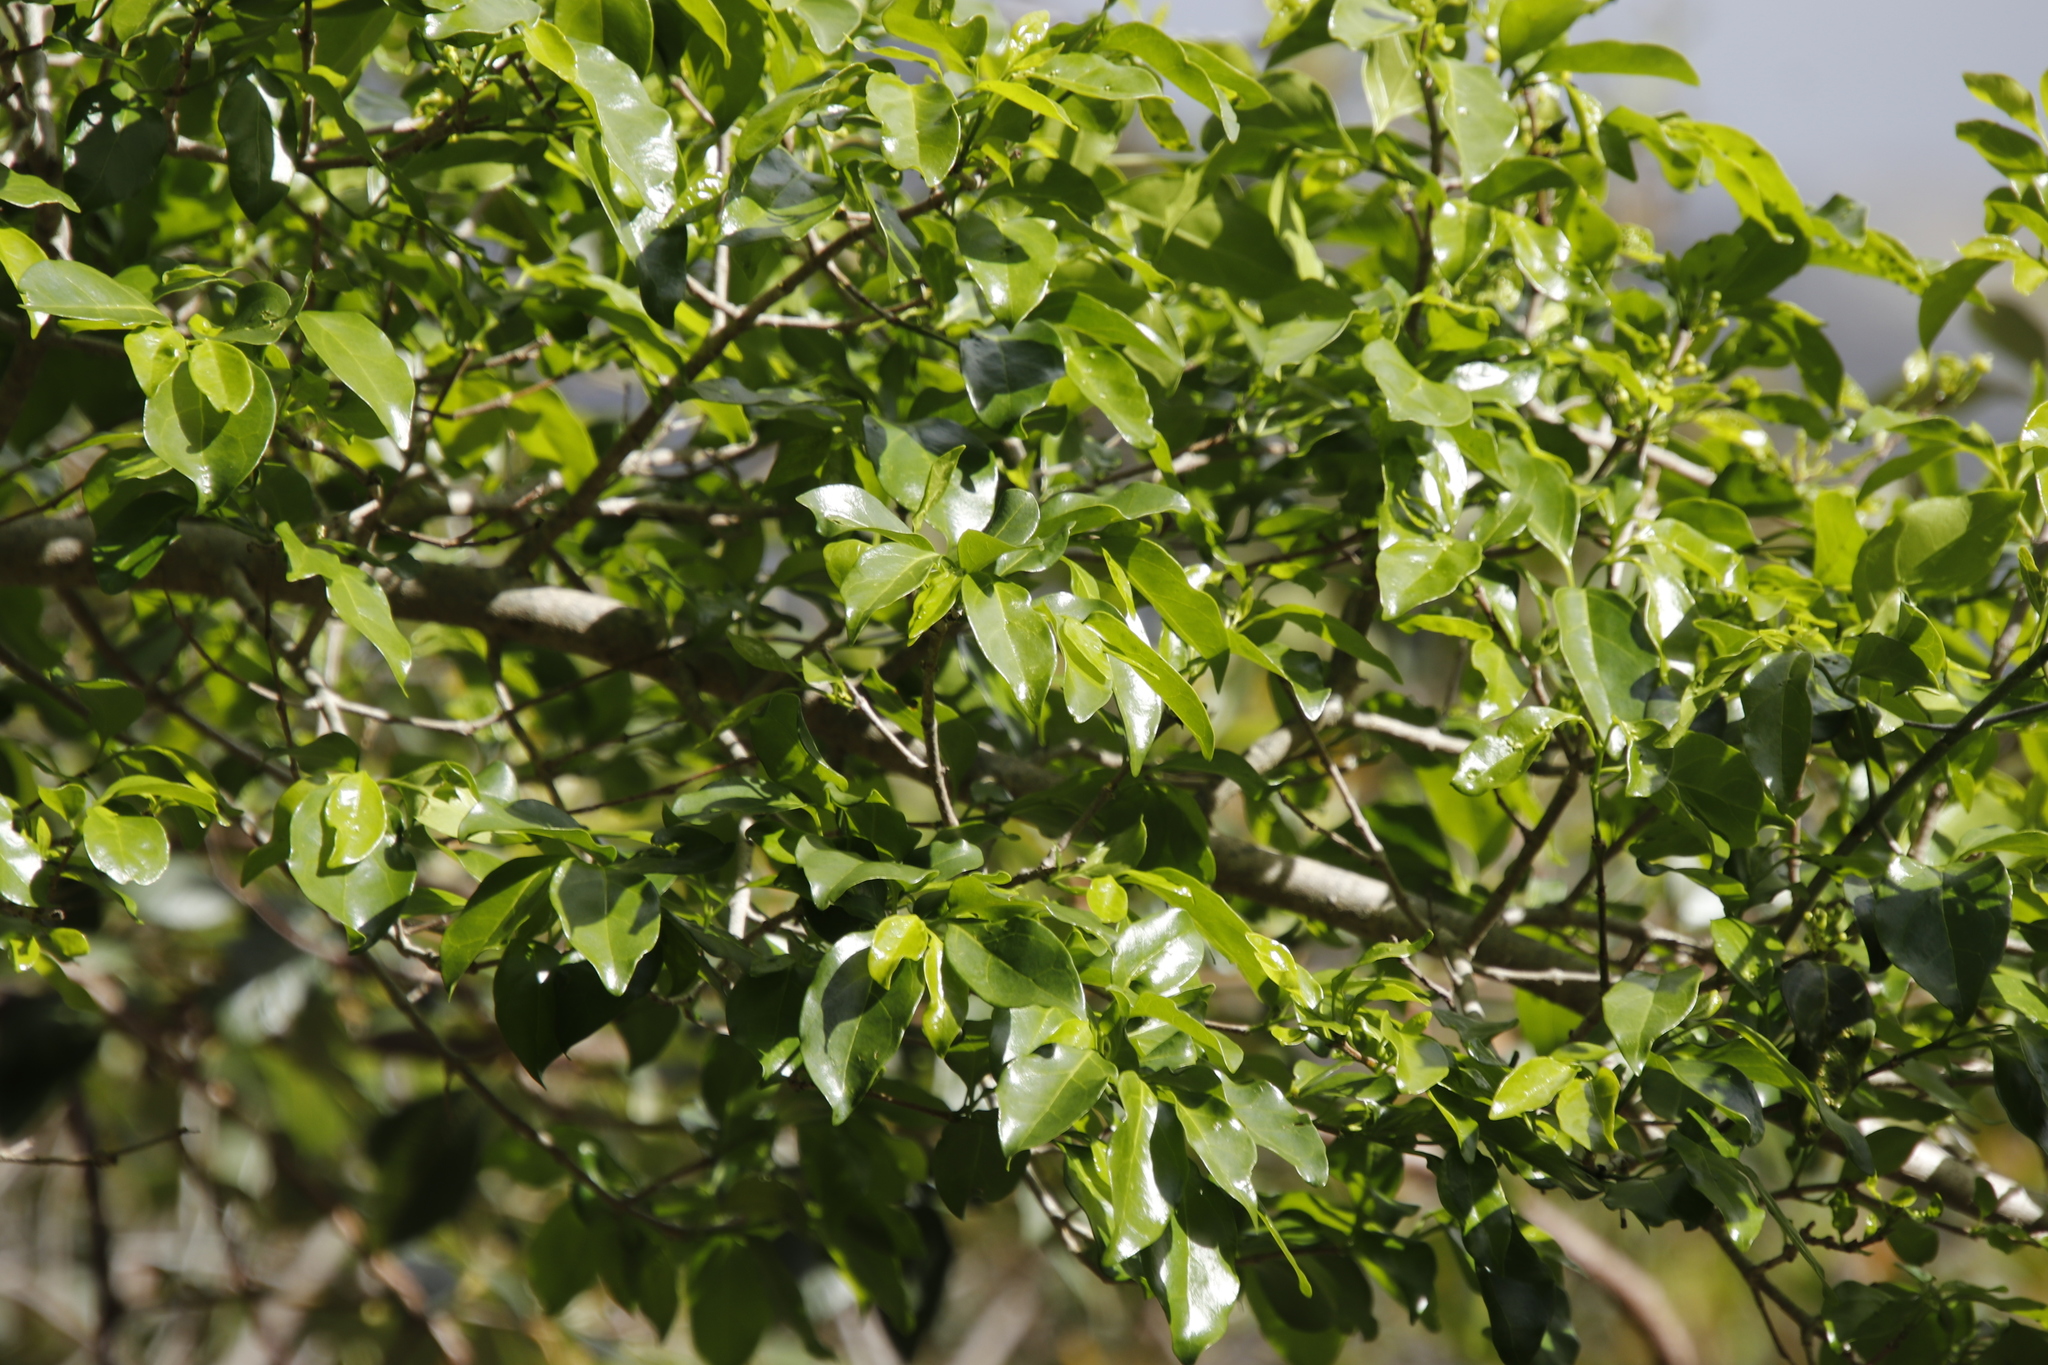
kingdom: Plantae
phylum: Tracheophyta
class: Magnoliopsida
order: Gentianales
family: Rubiaceae
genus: Canthium
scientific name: Canthium inerme
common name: Unarmed turkey-berry
